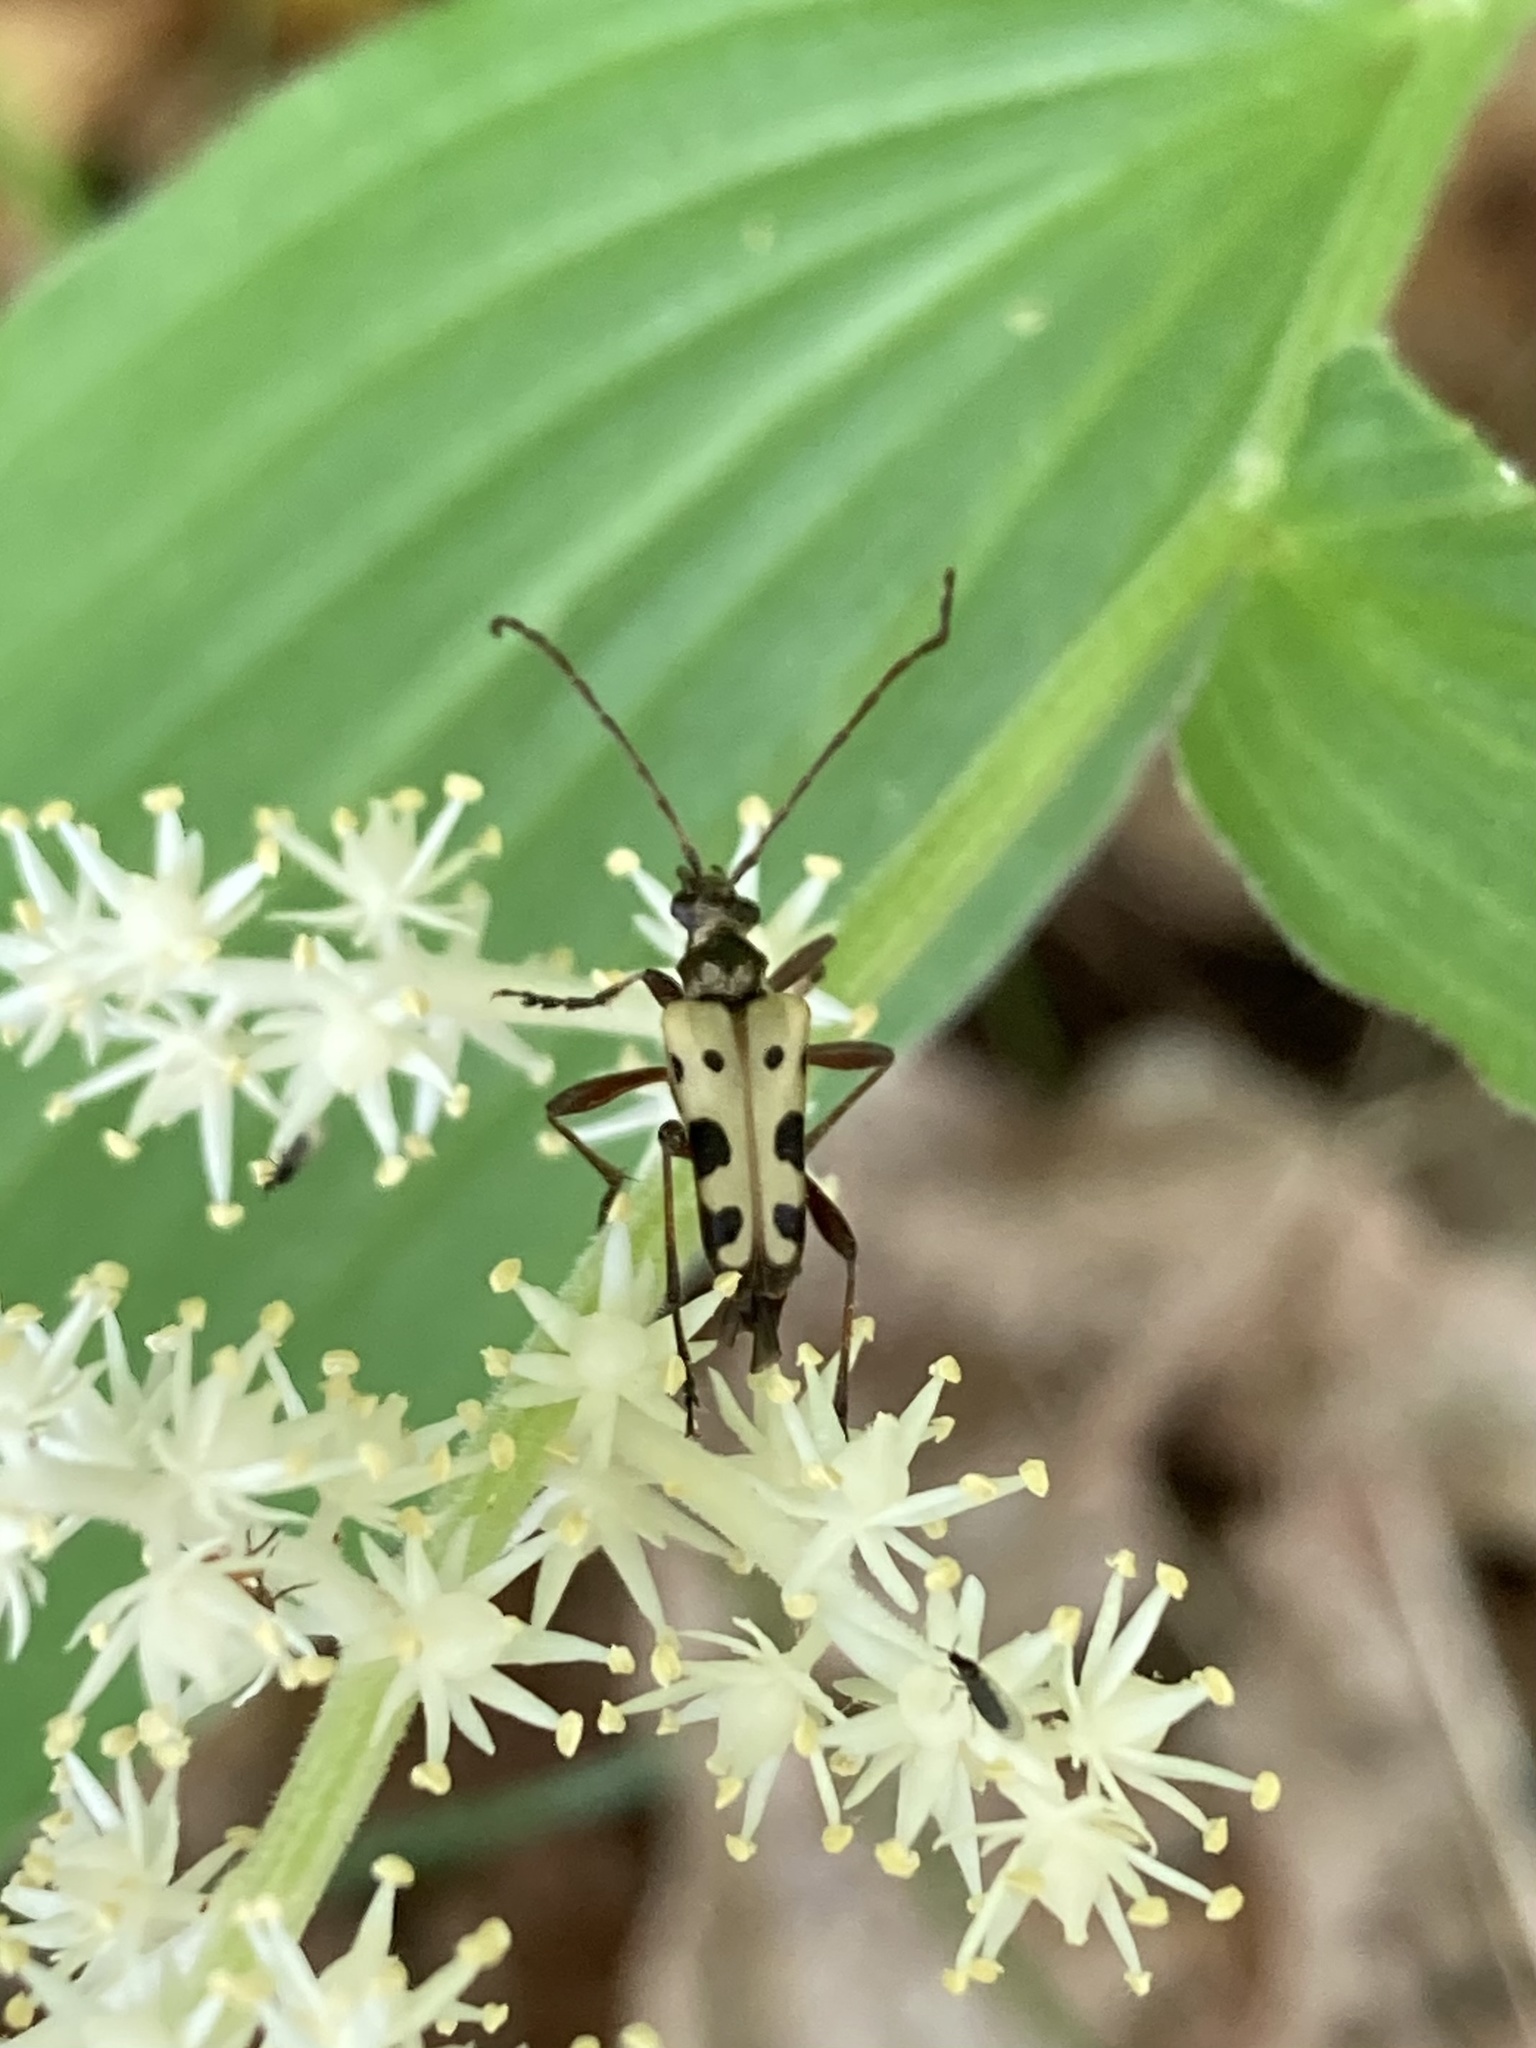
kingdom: Animalia
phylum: Arthropoda
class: Insecta
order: Coleoptera
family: Cerambycidae
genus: Evodinus
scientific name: Evodinus monticola
